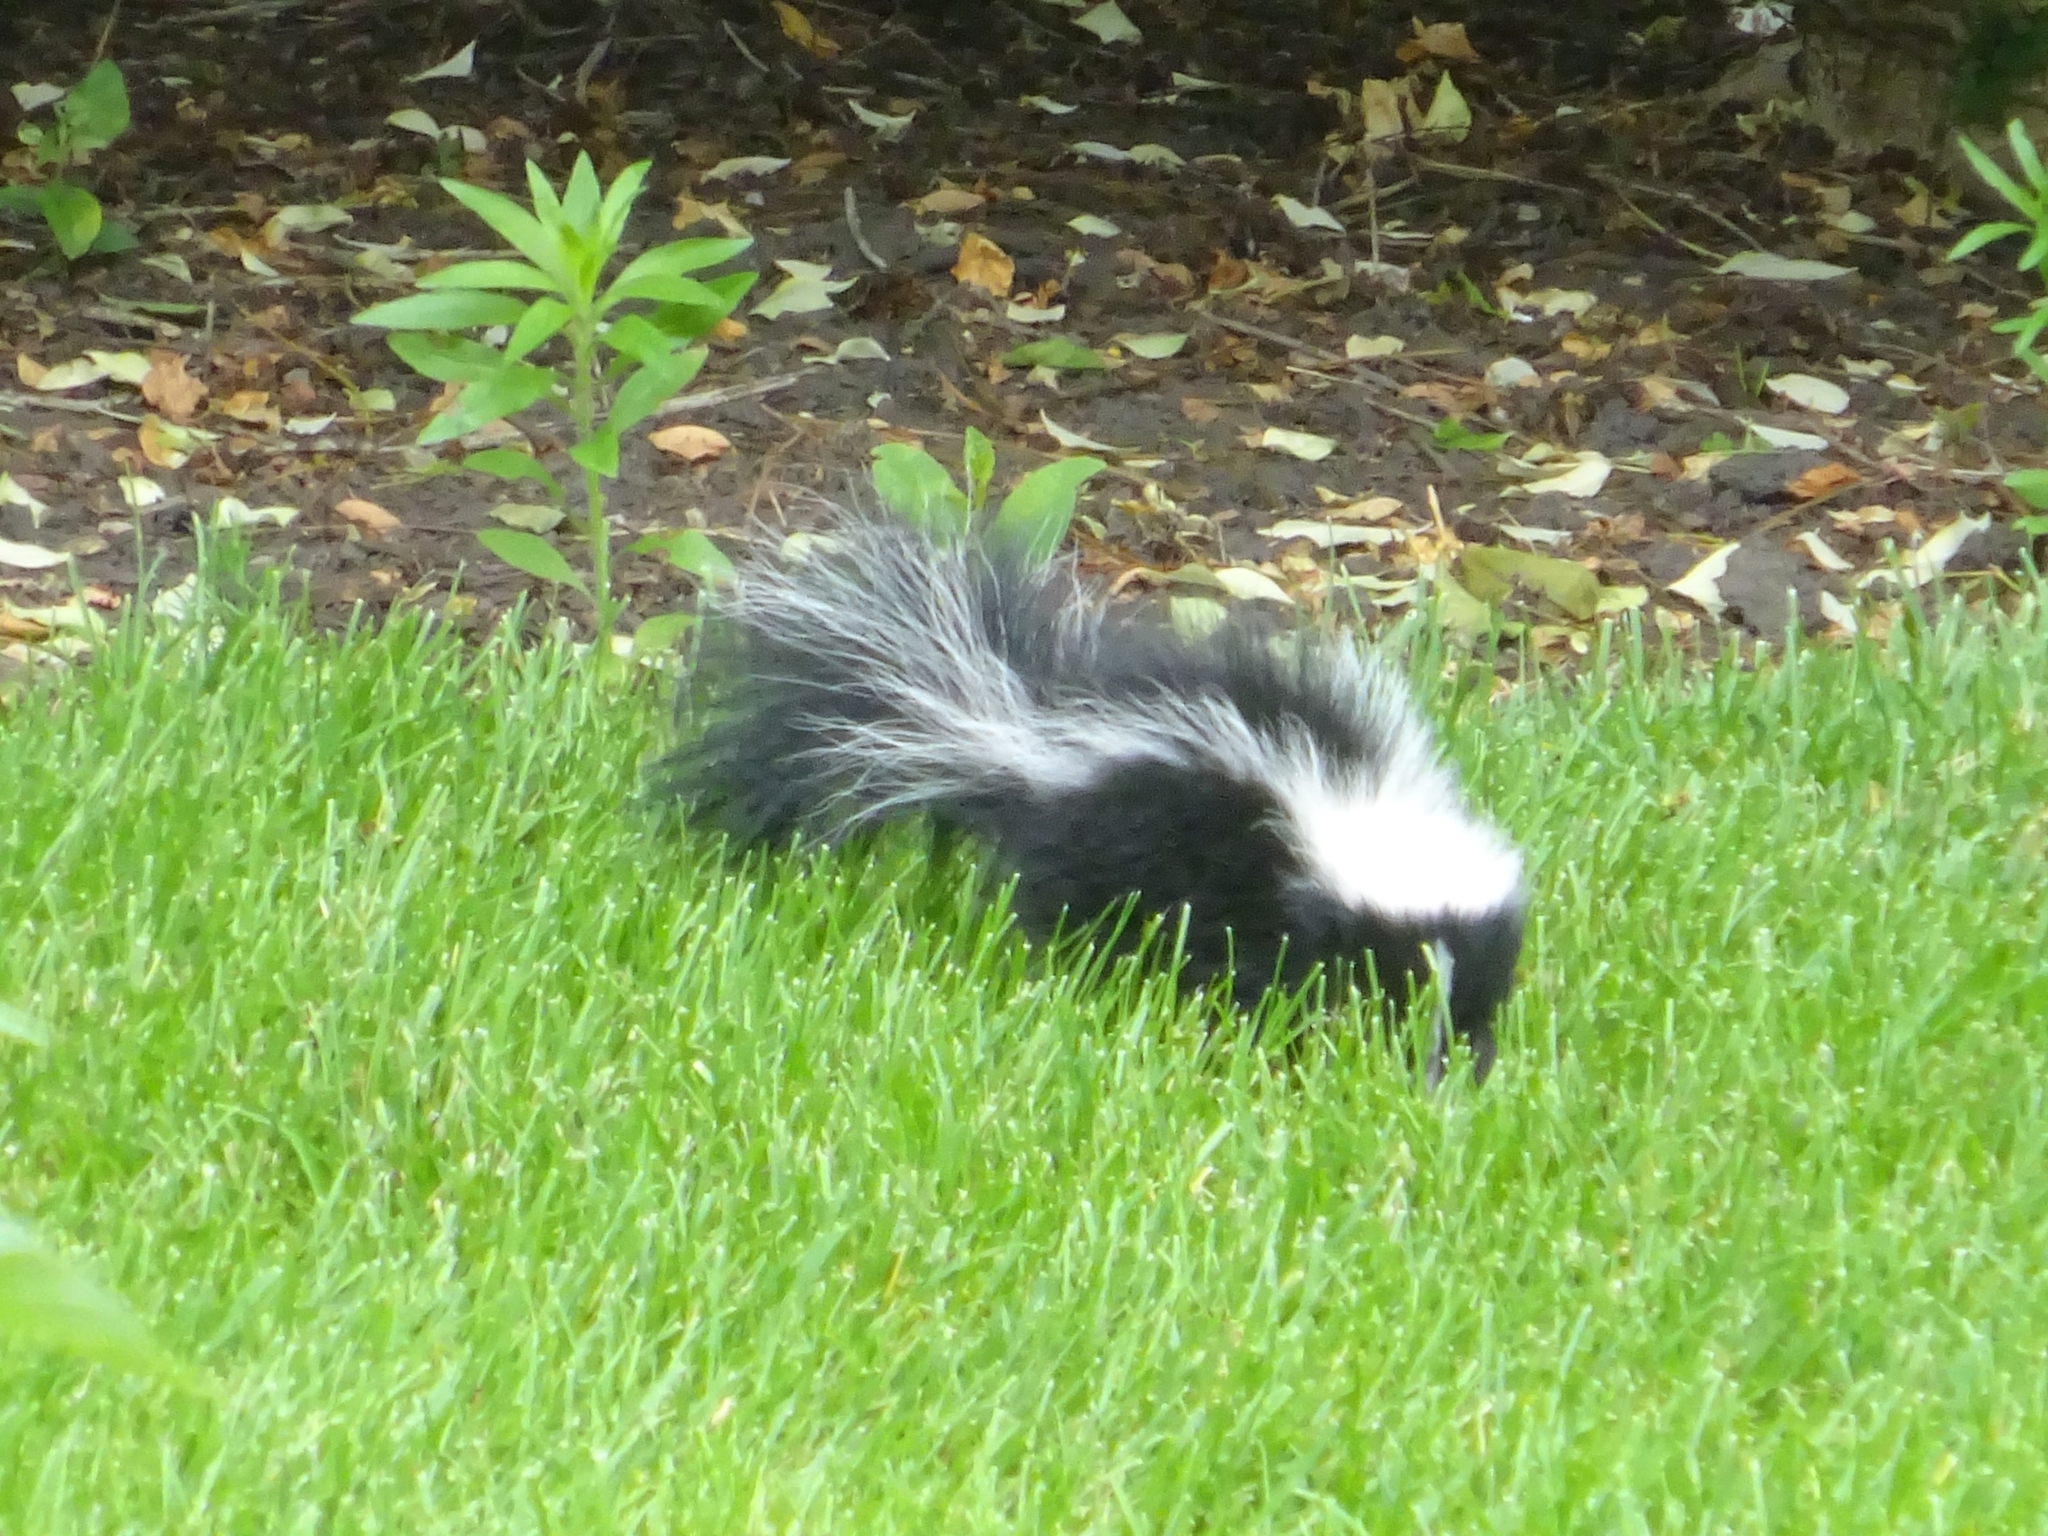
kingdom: Animalia
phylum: Chordata
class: Mammalia
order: Carnivora
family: Mephitidae
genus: Mephitis
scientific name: Mephitis mephitis
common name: Striped skunk
